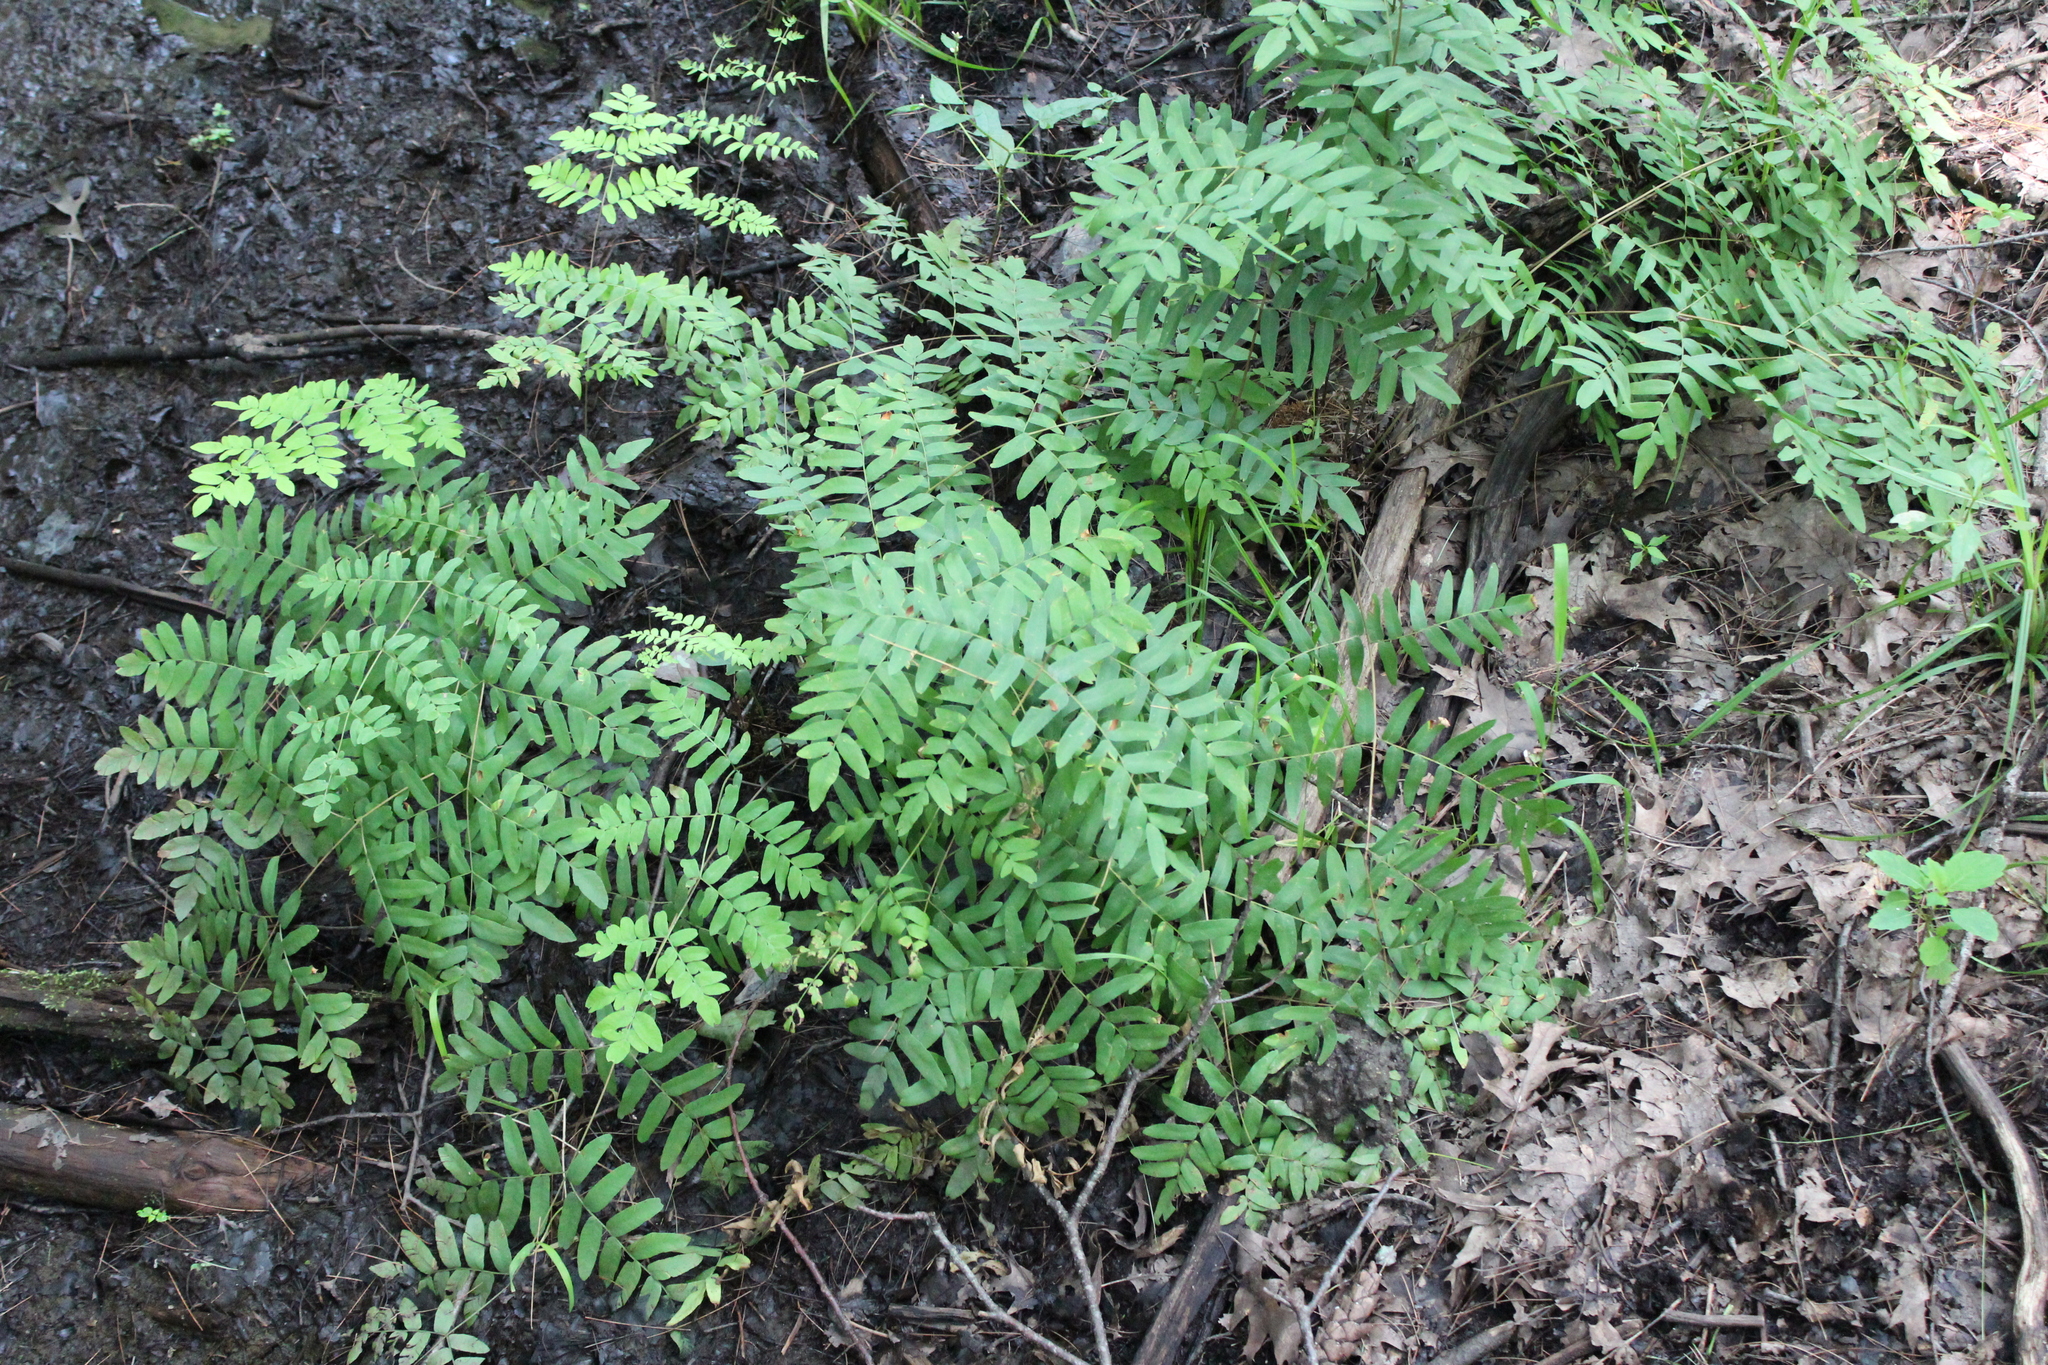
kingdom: Plantae
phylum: Tracheophyta
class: Polypodiopsida
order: Osmundales
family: Osmundaceae
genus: Osmunda
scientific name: Osmunda spectabilis
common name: American royal fern
